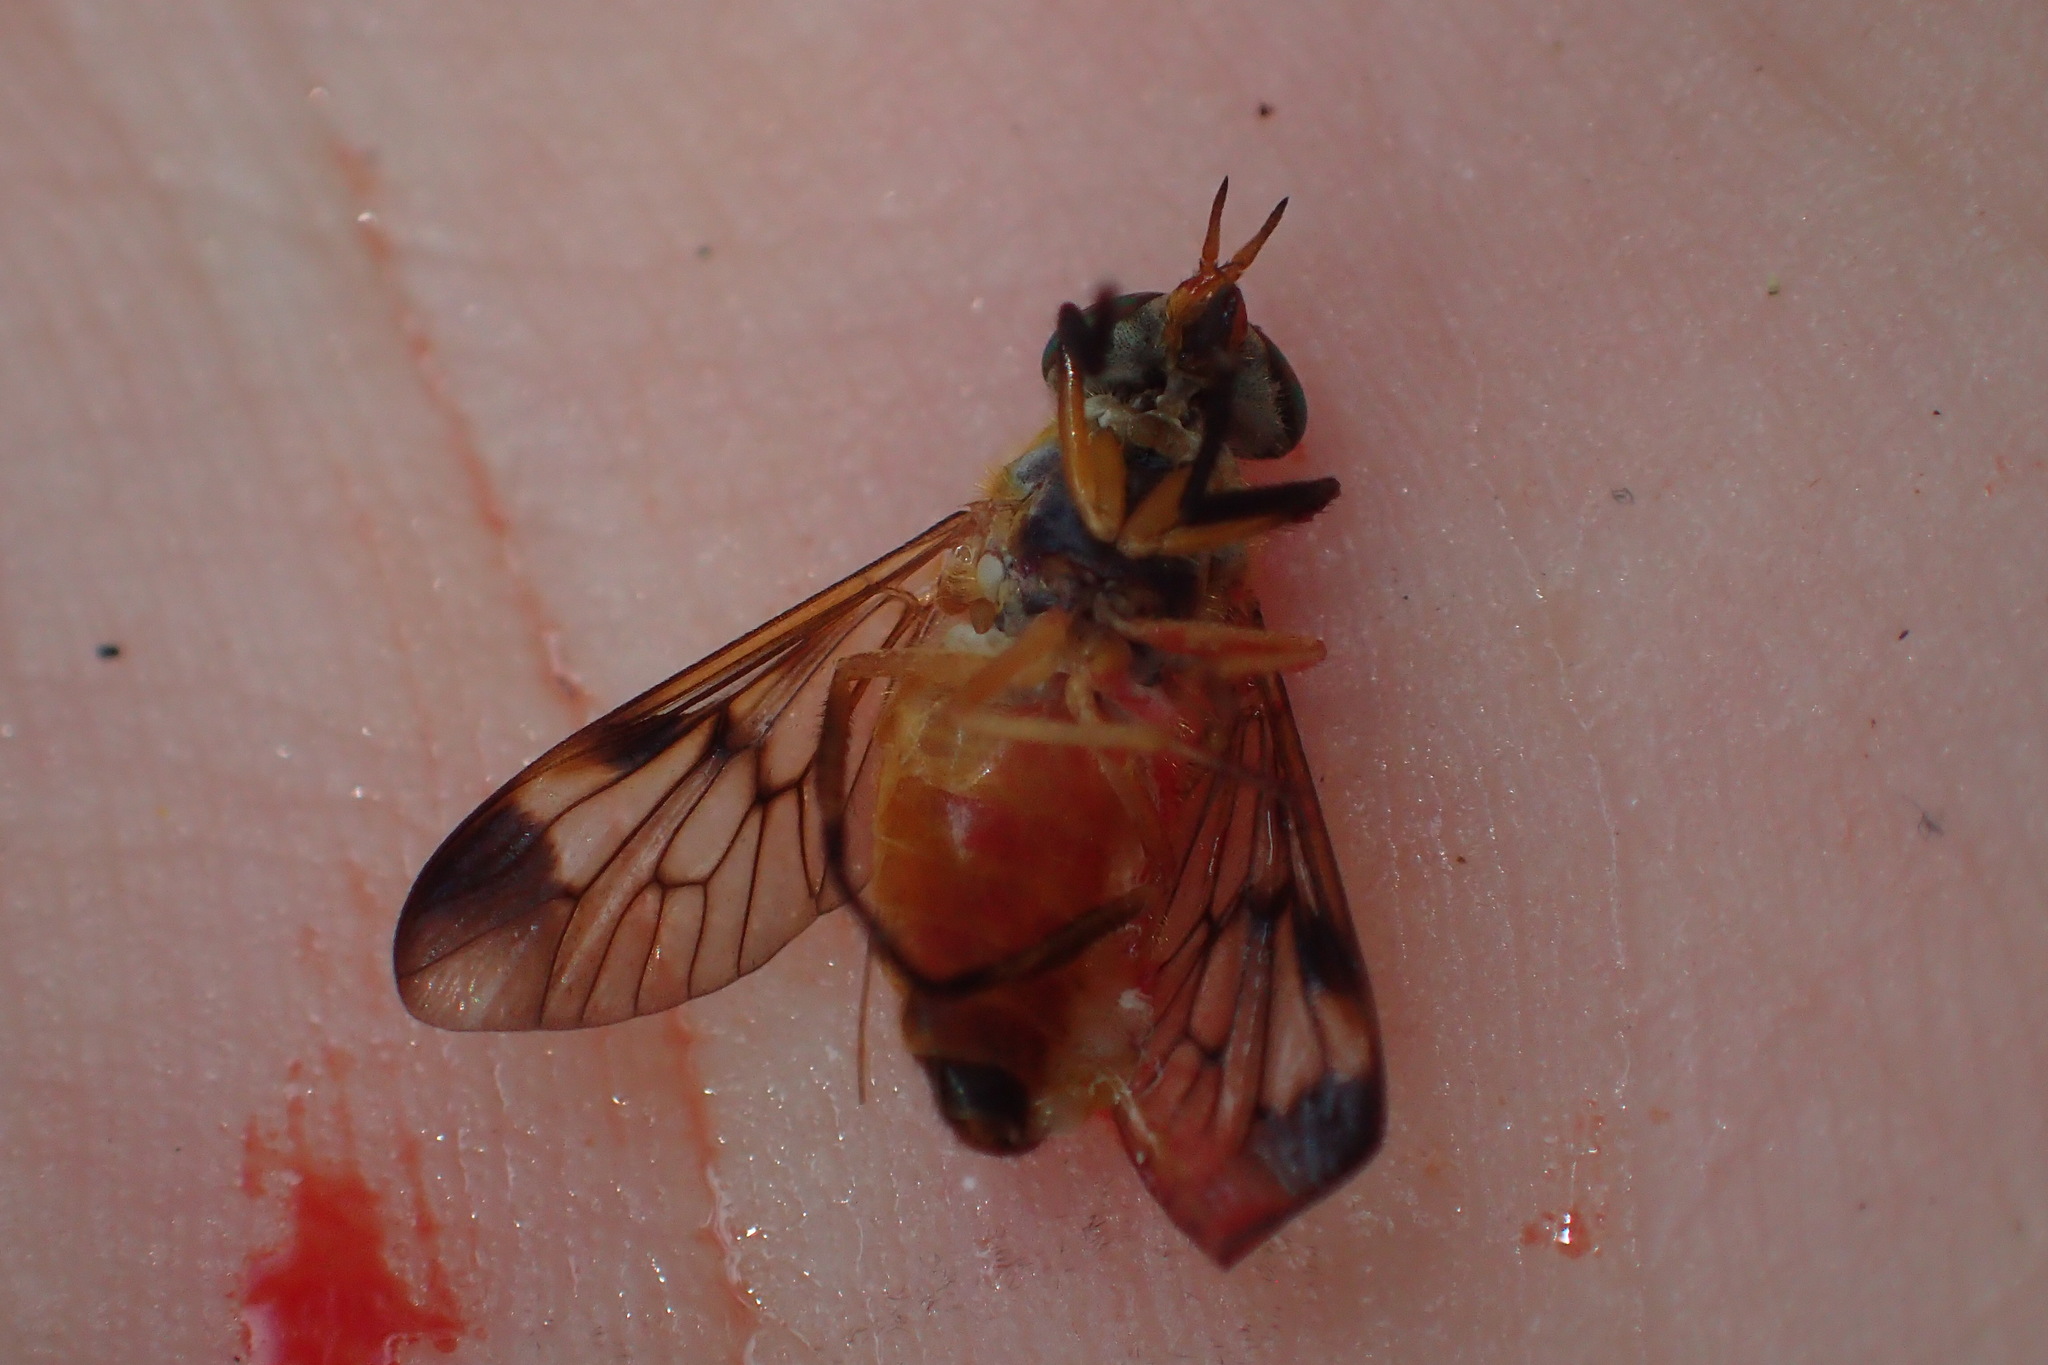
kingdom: Animalia
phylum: Arthropoda
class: Insecta
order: Diptera
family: Tabanidae
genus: Diachlorus
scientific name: Diachlorus ferrugatus
